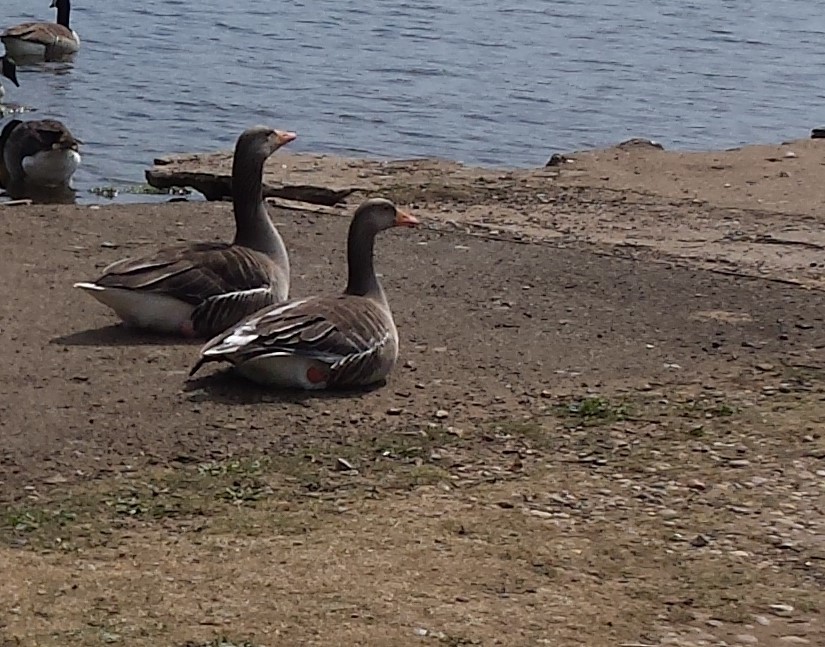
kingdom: Animalia
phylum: Chordata
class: Aves
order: Anseriformes
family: Anatidae
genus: Anser
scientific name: Anser anser
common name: Greylag goose
